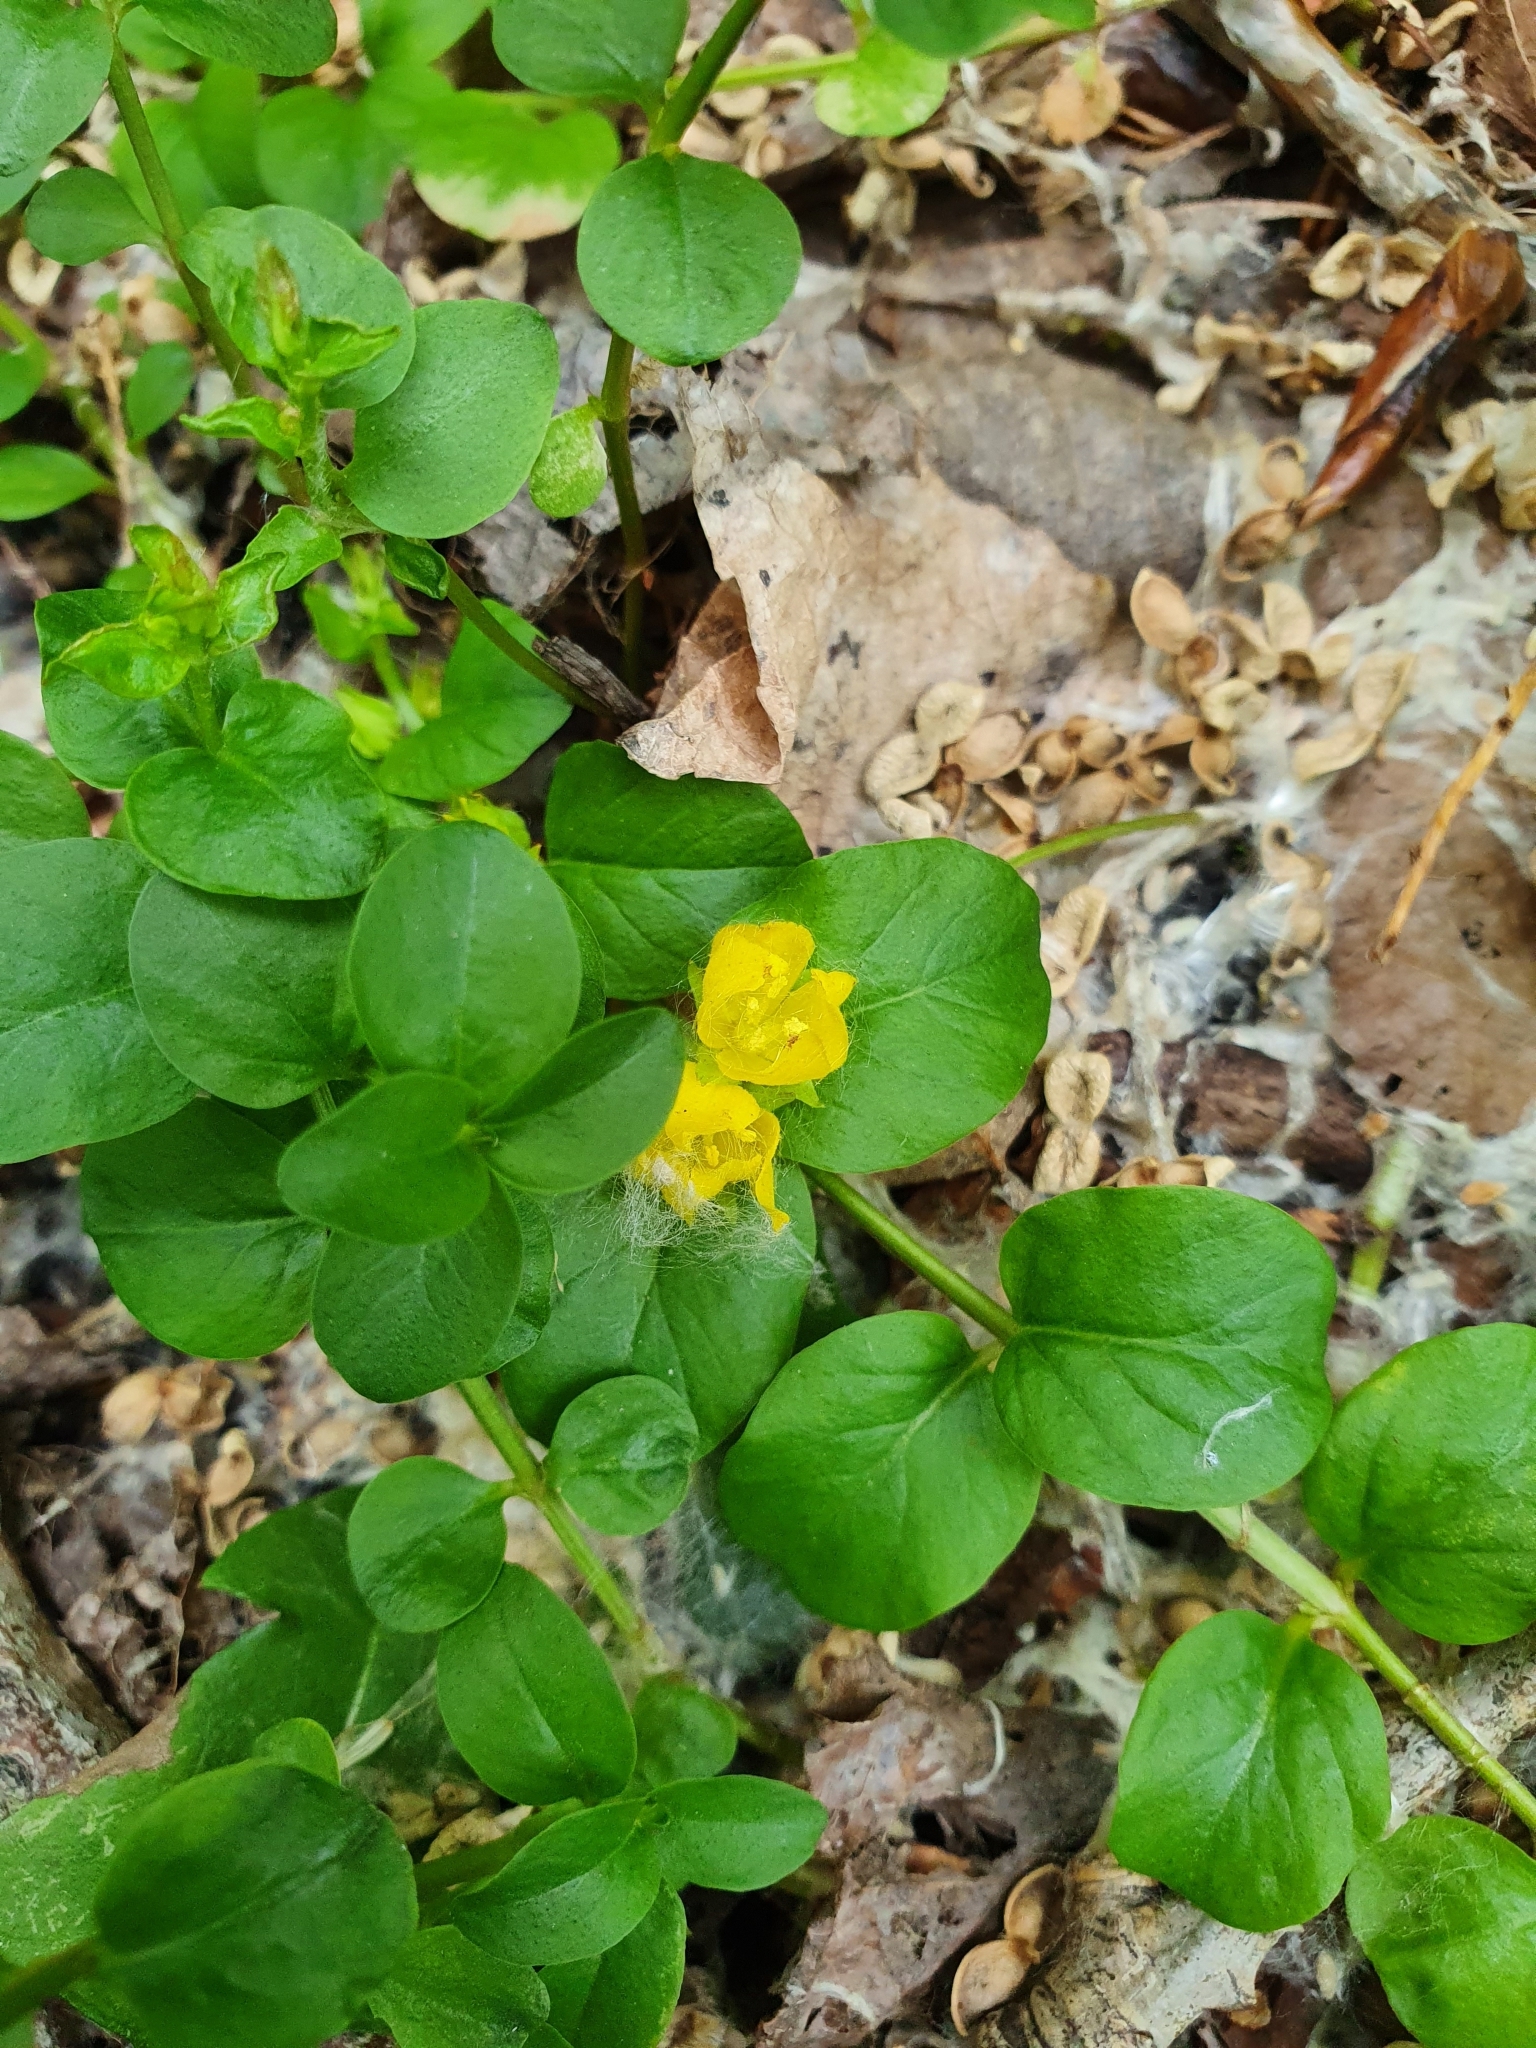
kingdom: Plantae
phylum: Tracheophyta
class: Magnoliopsida
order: Ericales
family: Primulaceae
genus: Lysimachia
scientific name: Lysimachia nummularia
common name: Moneywort
